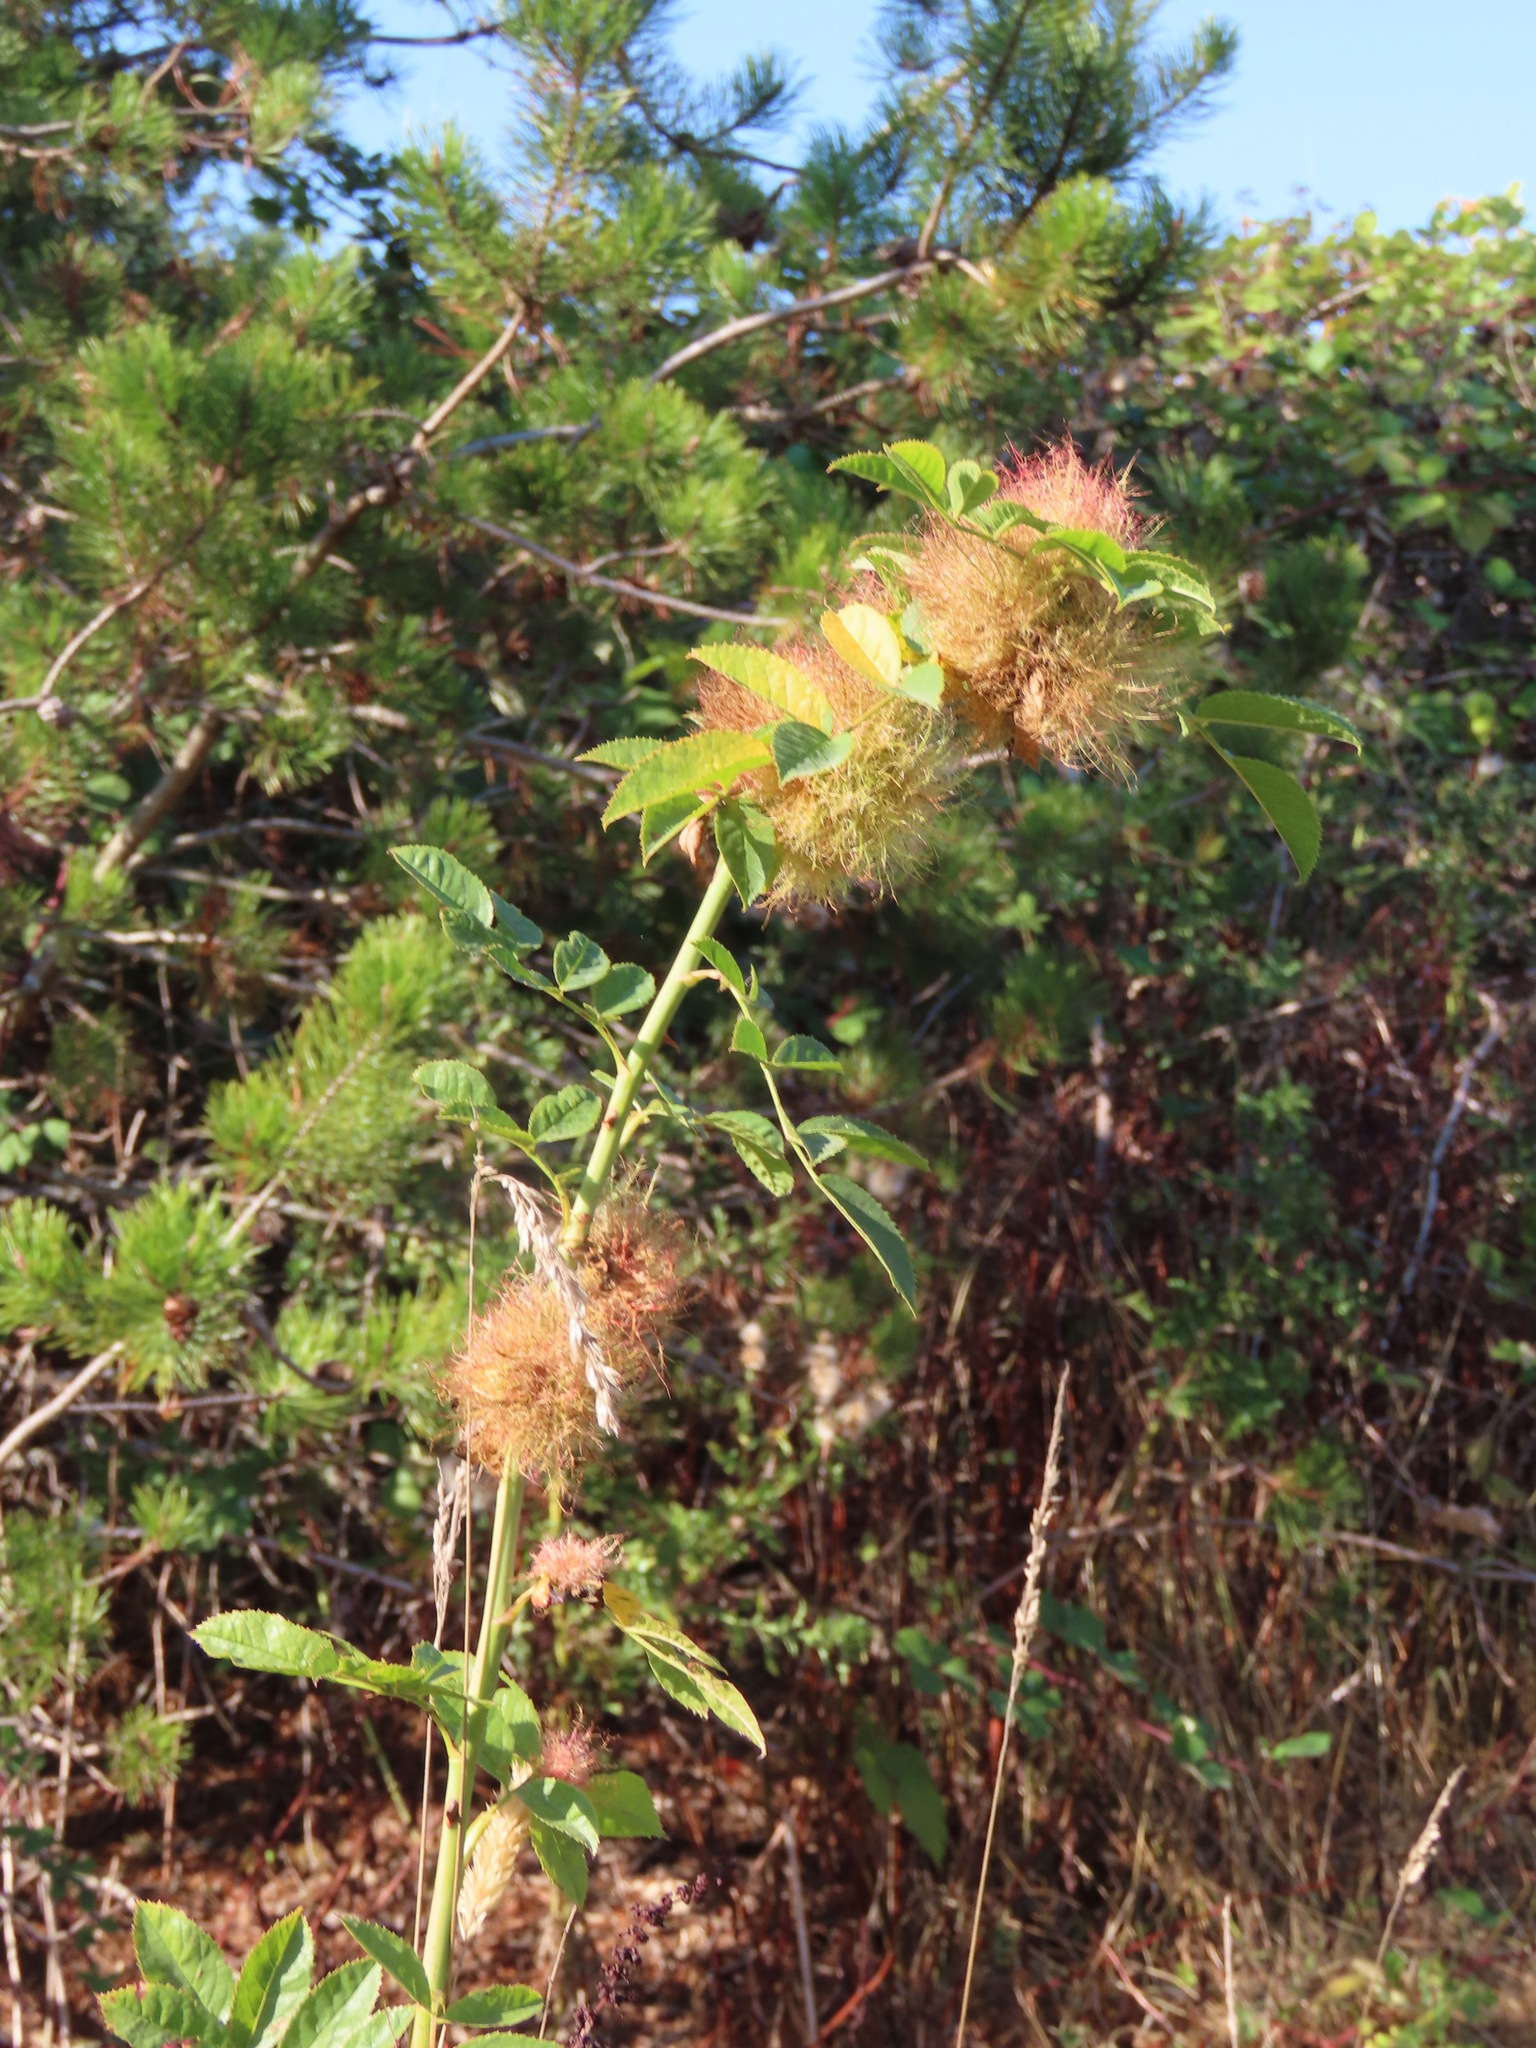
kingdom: Animalia
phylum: Arthropoda
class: Insecta
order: Hymenoptera
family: Cynipidae
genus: Diplolepis
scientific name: Diplolepis rosae
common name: Bedeguar gall
